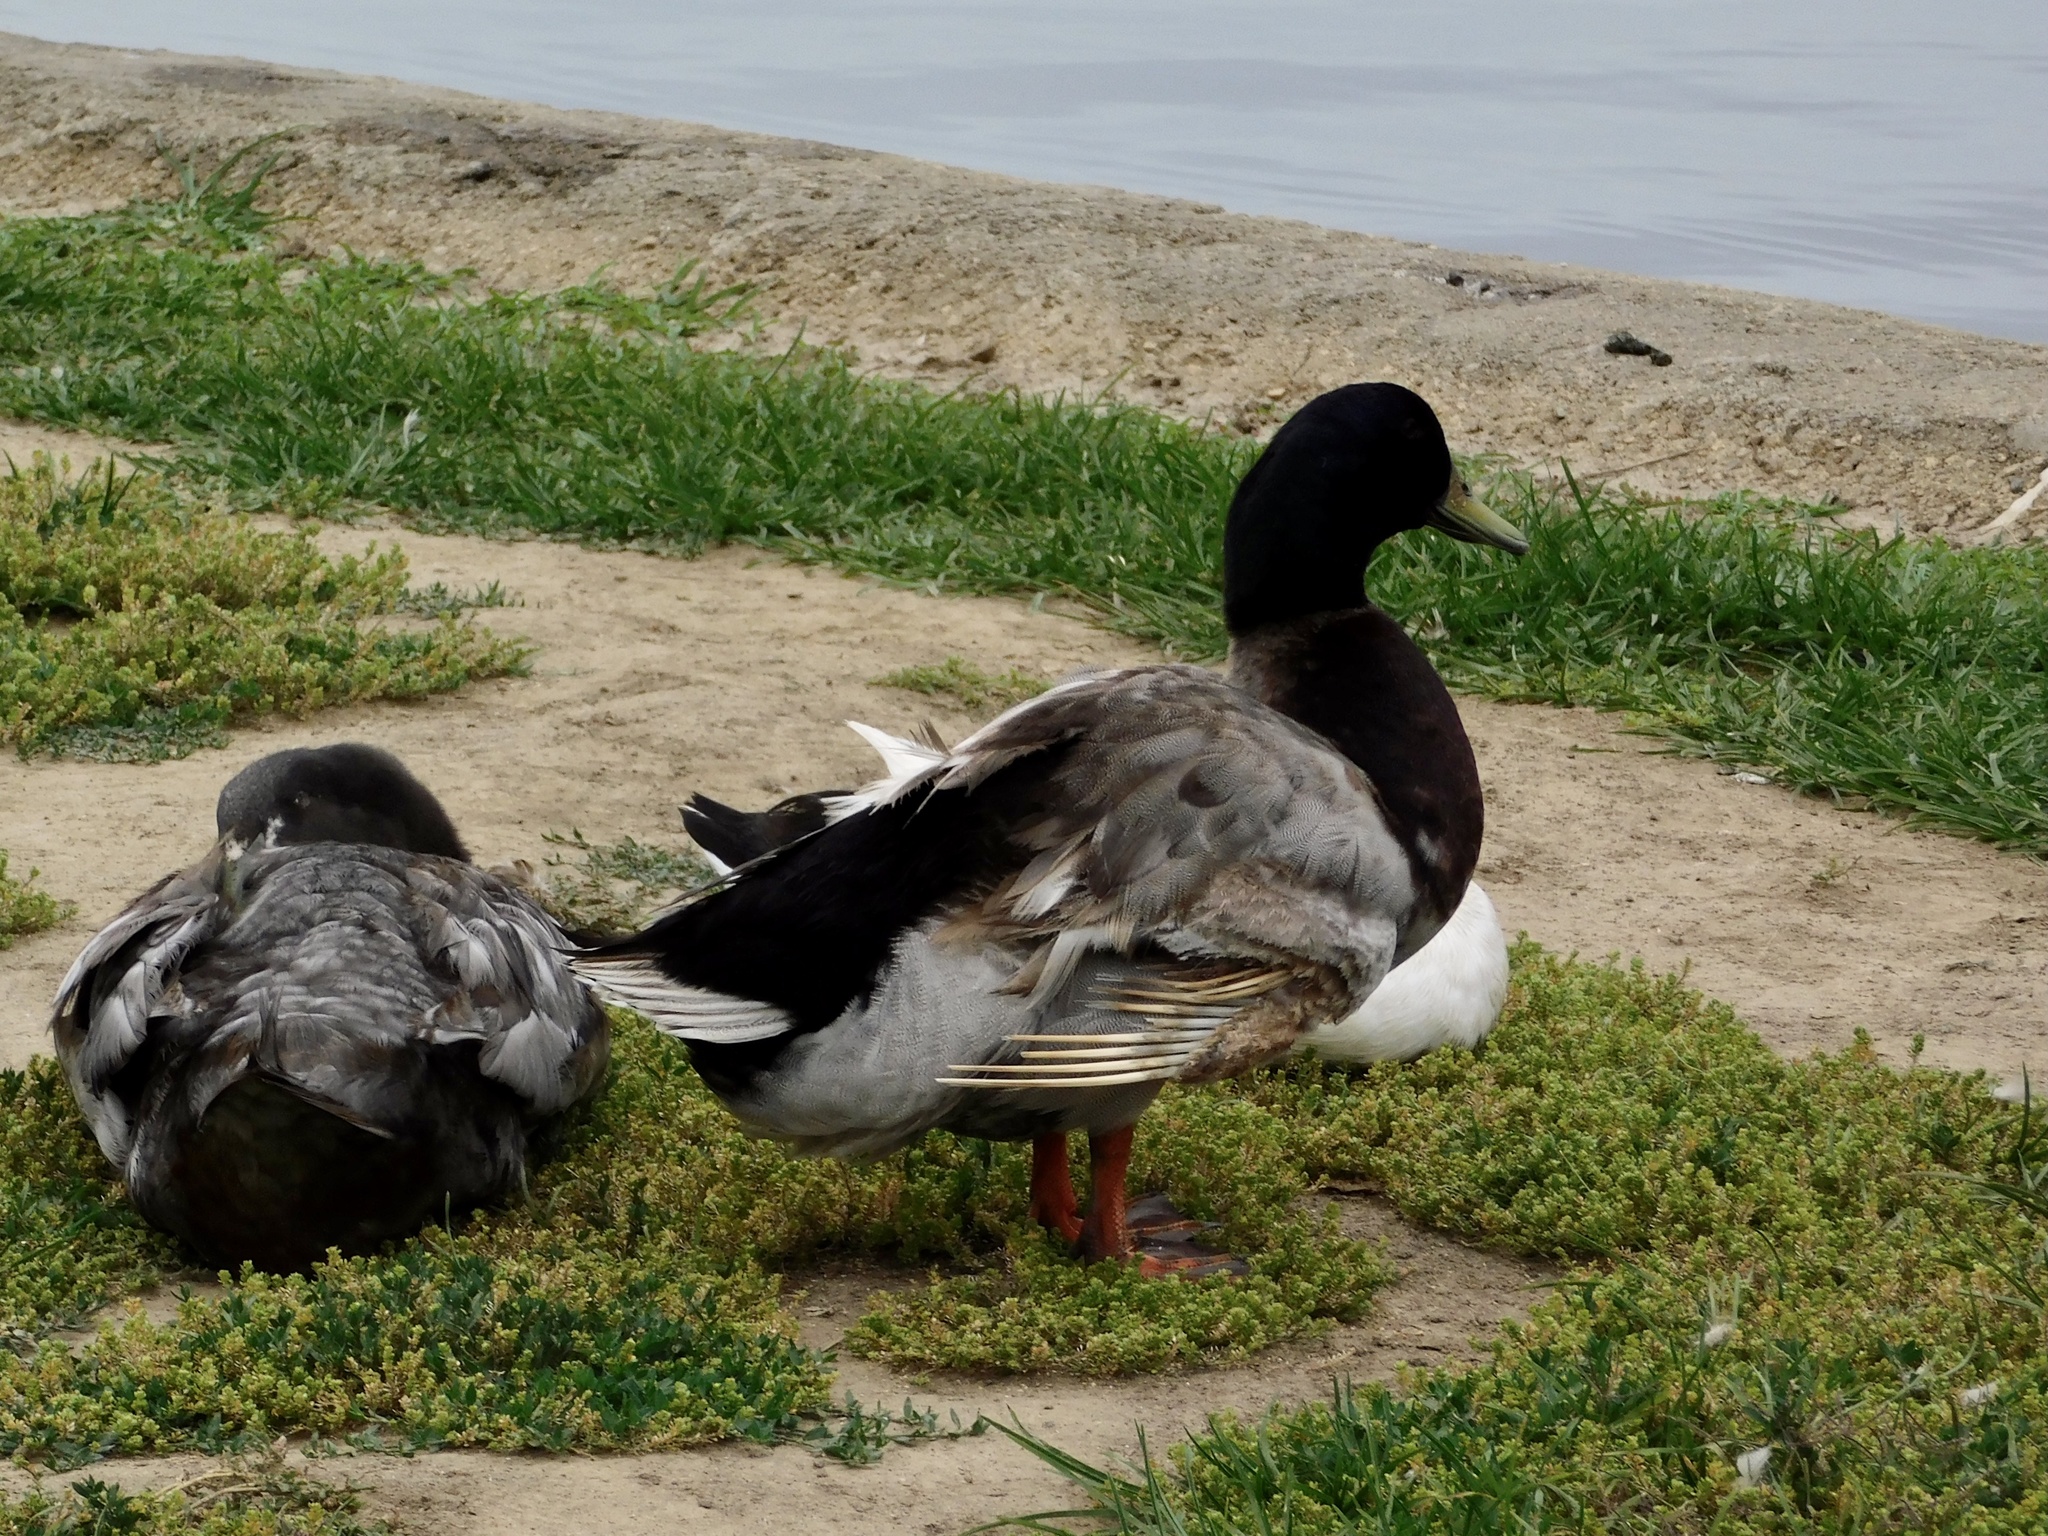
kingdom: Animalia
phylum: Chordata
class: Aves
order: Anseriformes
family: Anatidae
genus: Anas
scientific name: Anas platyrhynchos
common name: Mallard
